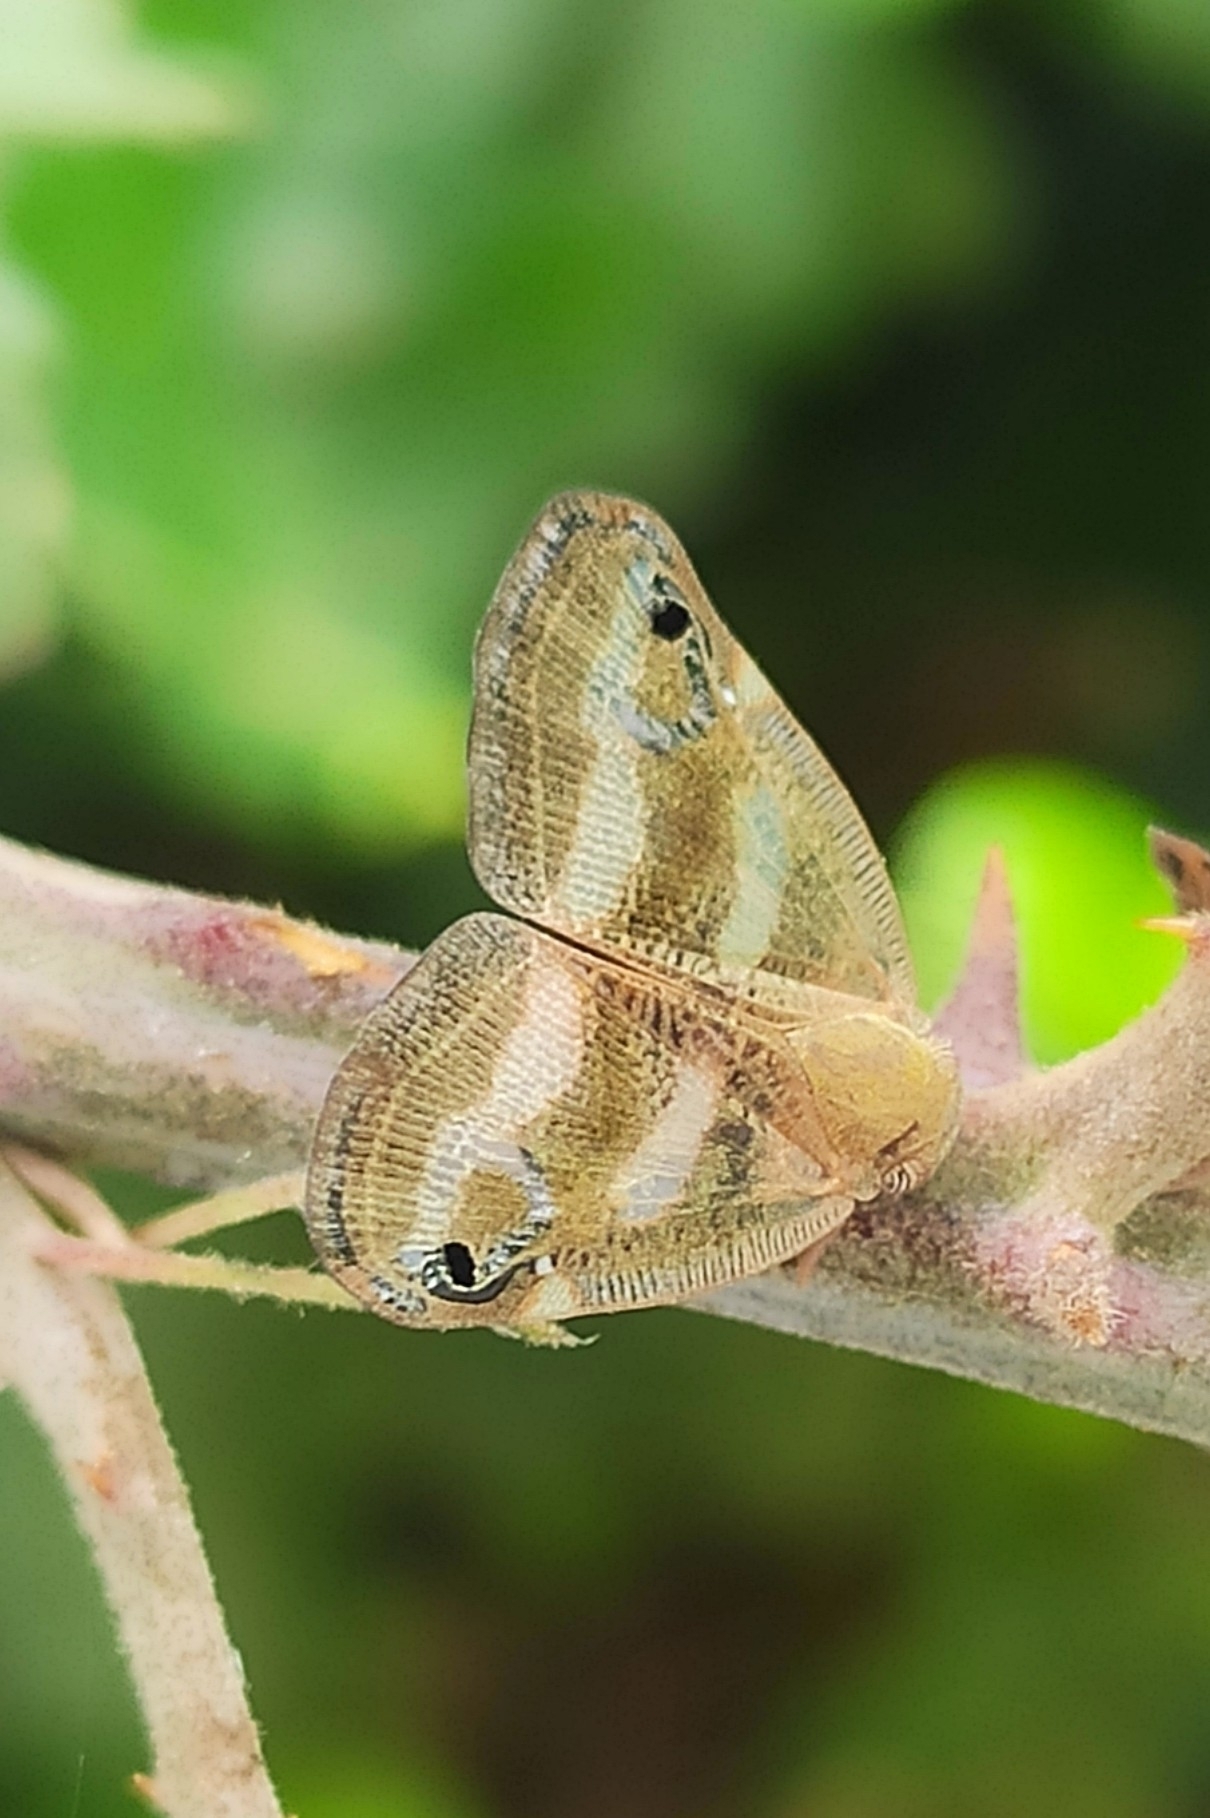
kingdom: Animalia
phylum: Arthropoda
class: Insecta
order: Hemiptera
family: Ricaniidae
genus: Orosanga
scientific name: Orosanga japonica
